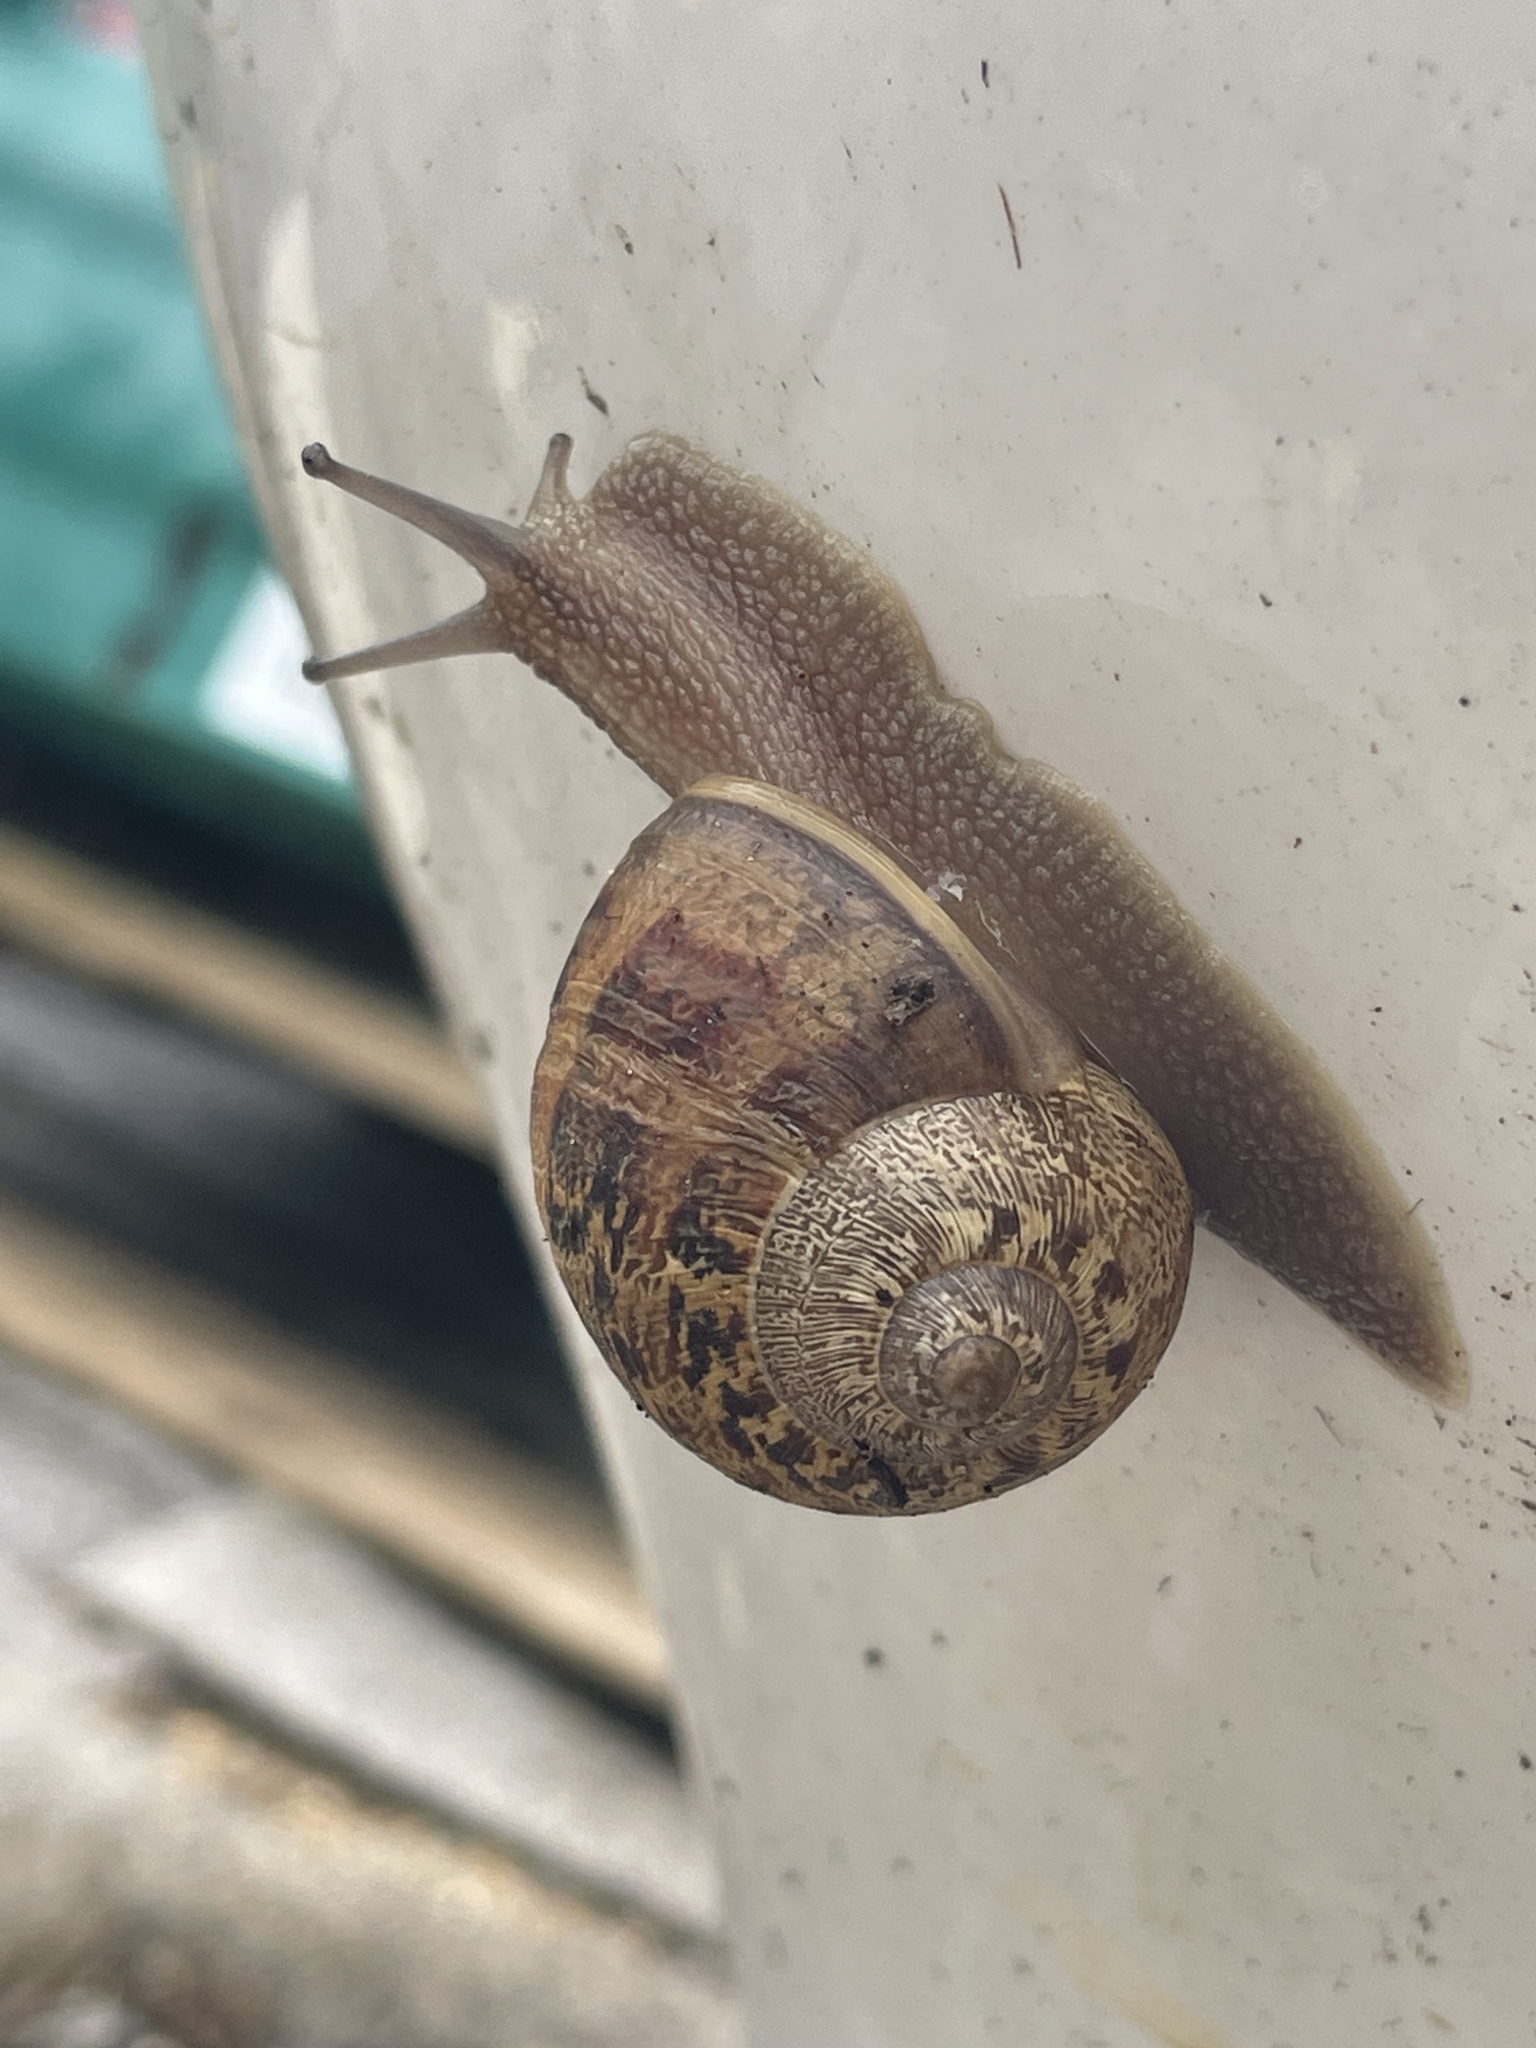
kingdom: Animalia
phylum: Mollusca
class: Gastropoda
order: Stylommatophora
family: Helicidae
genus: Cornu
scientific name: Cornu aspersum
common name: Brown garden snail
